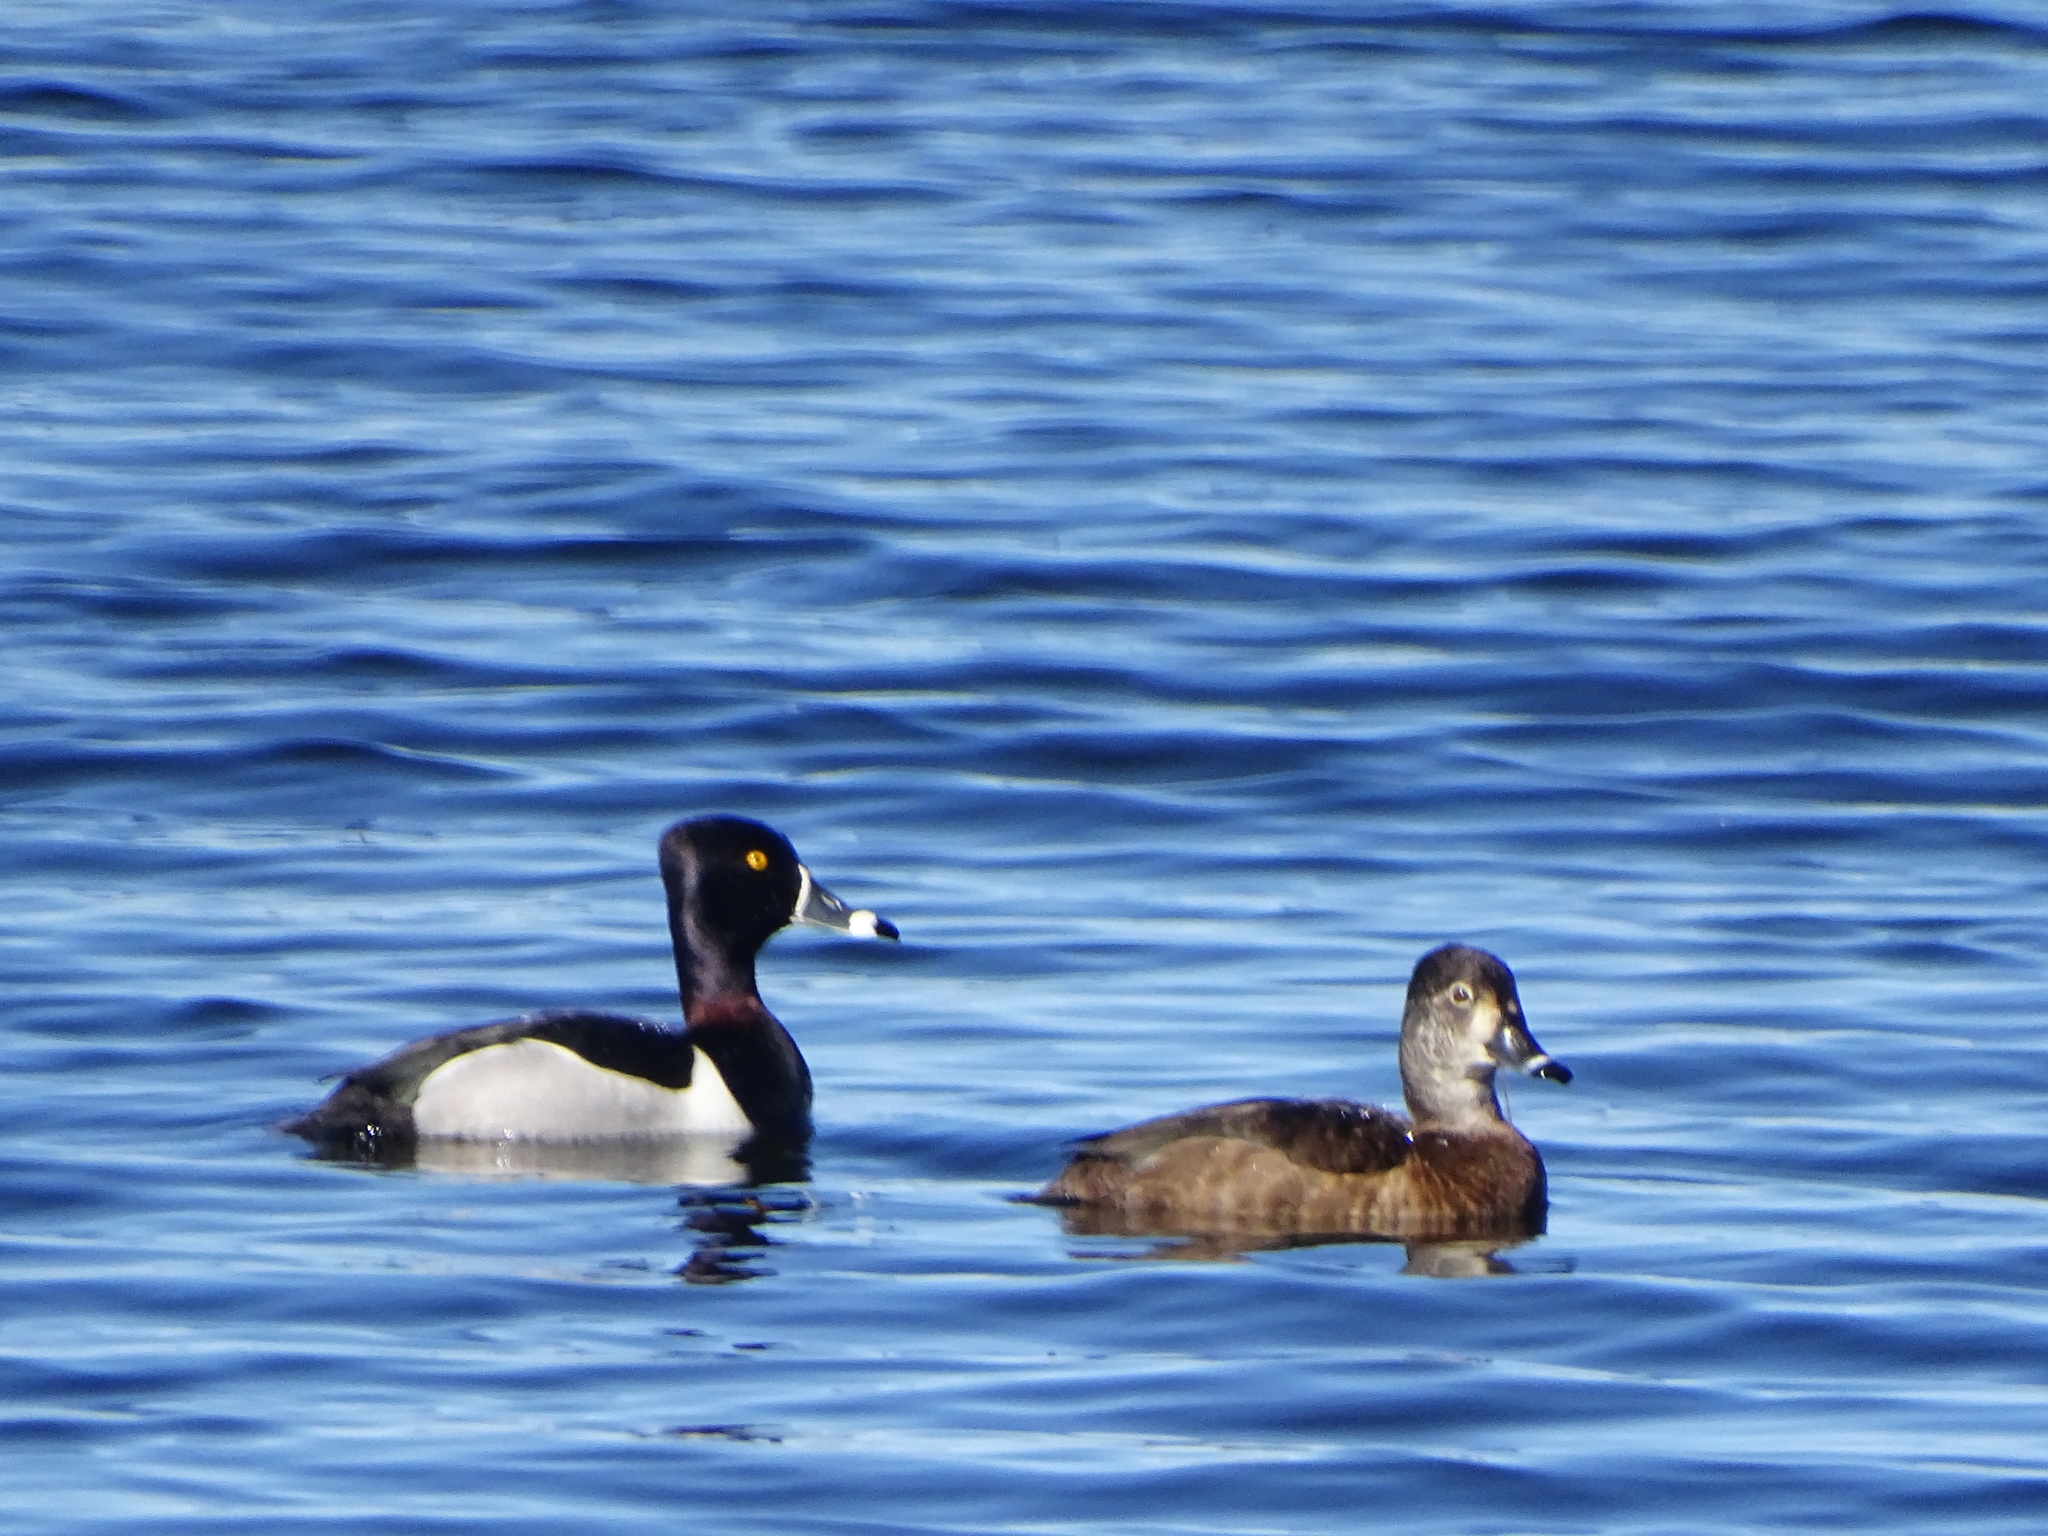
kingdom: Animalia
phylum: Chordata
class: Aves
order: Anseriformes
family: Anatidae
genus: Aythya
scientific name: Aythya collaris
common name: Ring-necked duck
